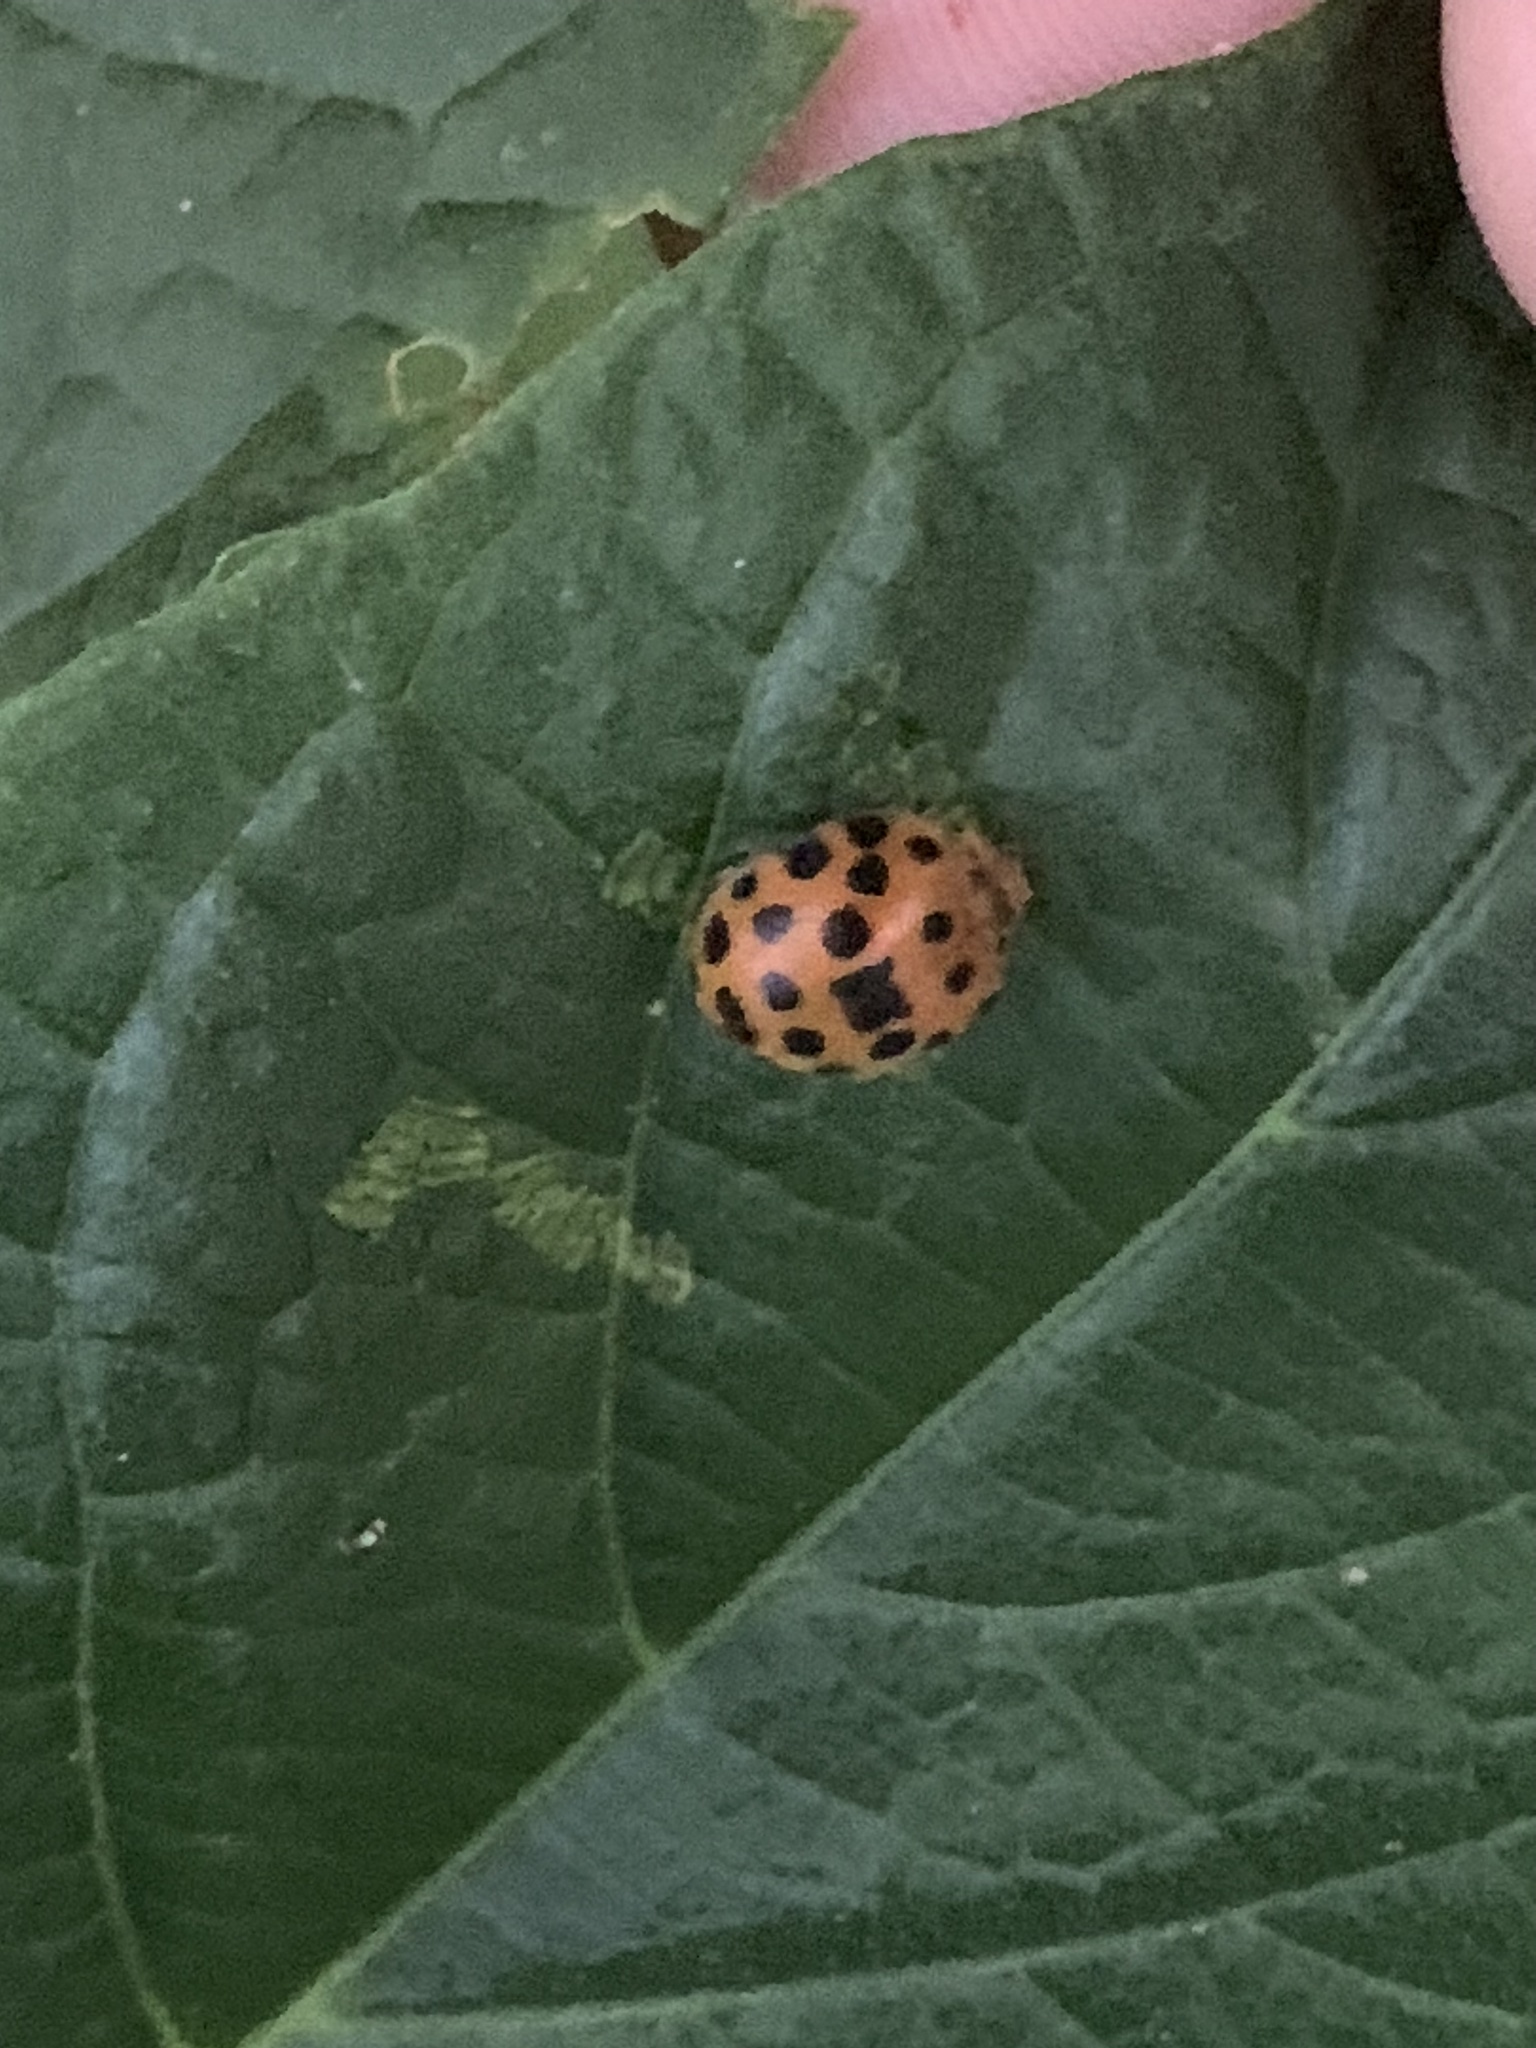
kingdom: Animalia
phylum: Arthropoda
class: Insecta
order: Coleoptera
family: Coccinellidae
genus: Henosepilachna
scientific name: Henosepilachna vigintioctopunctata
